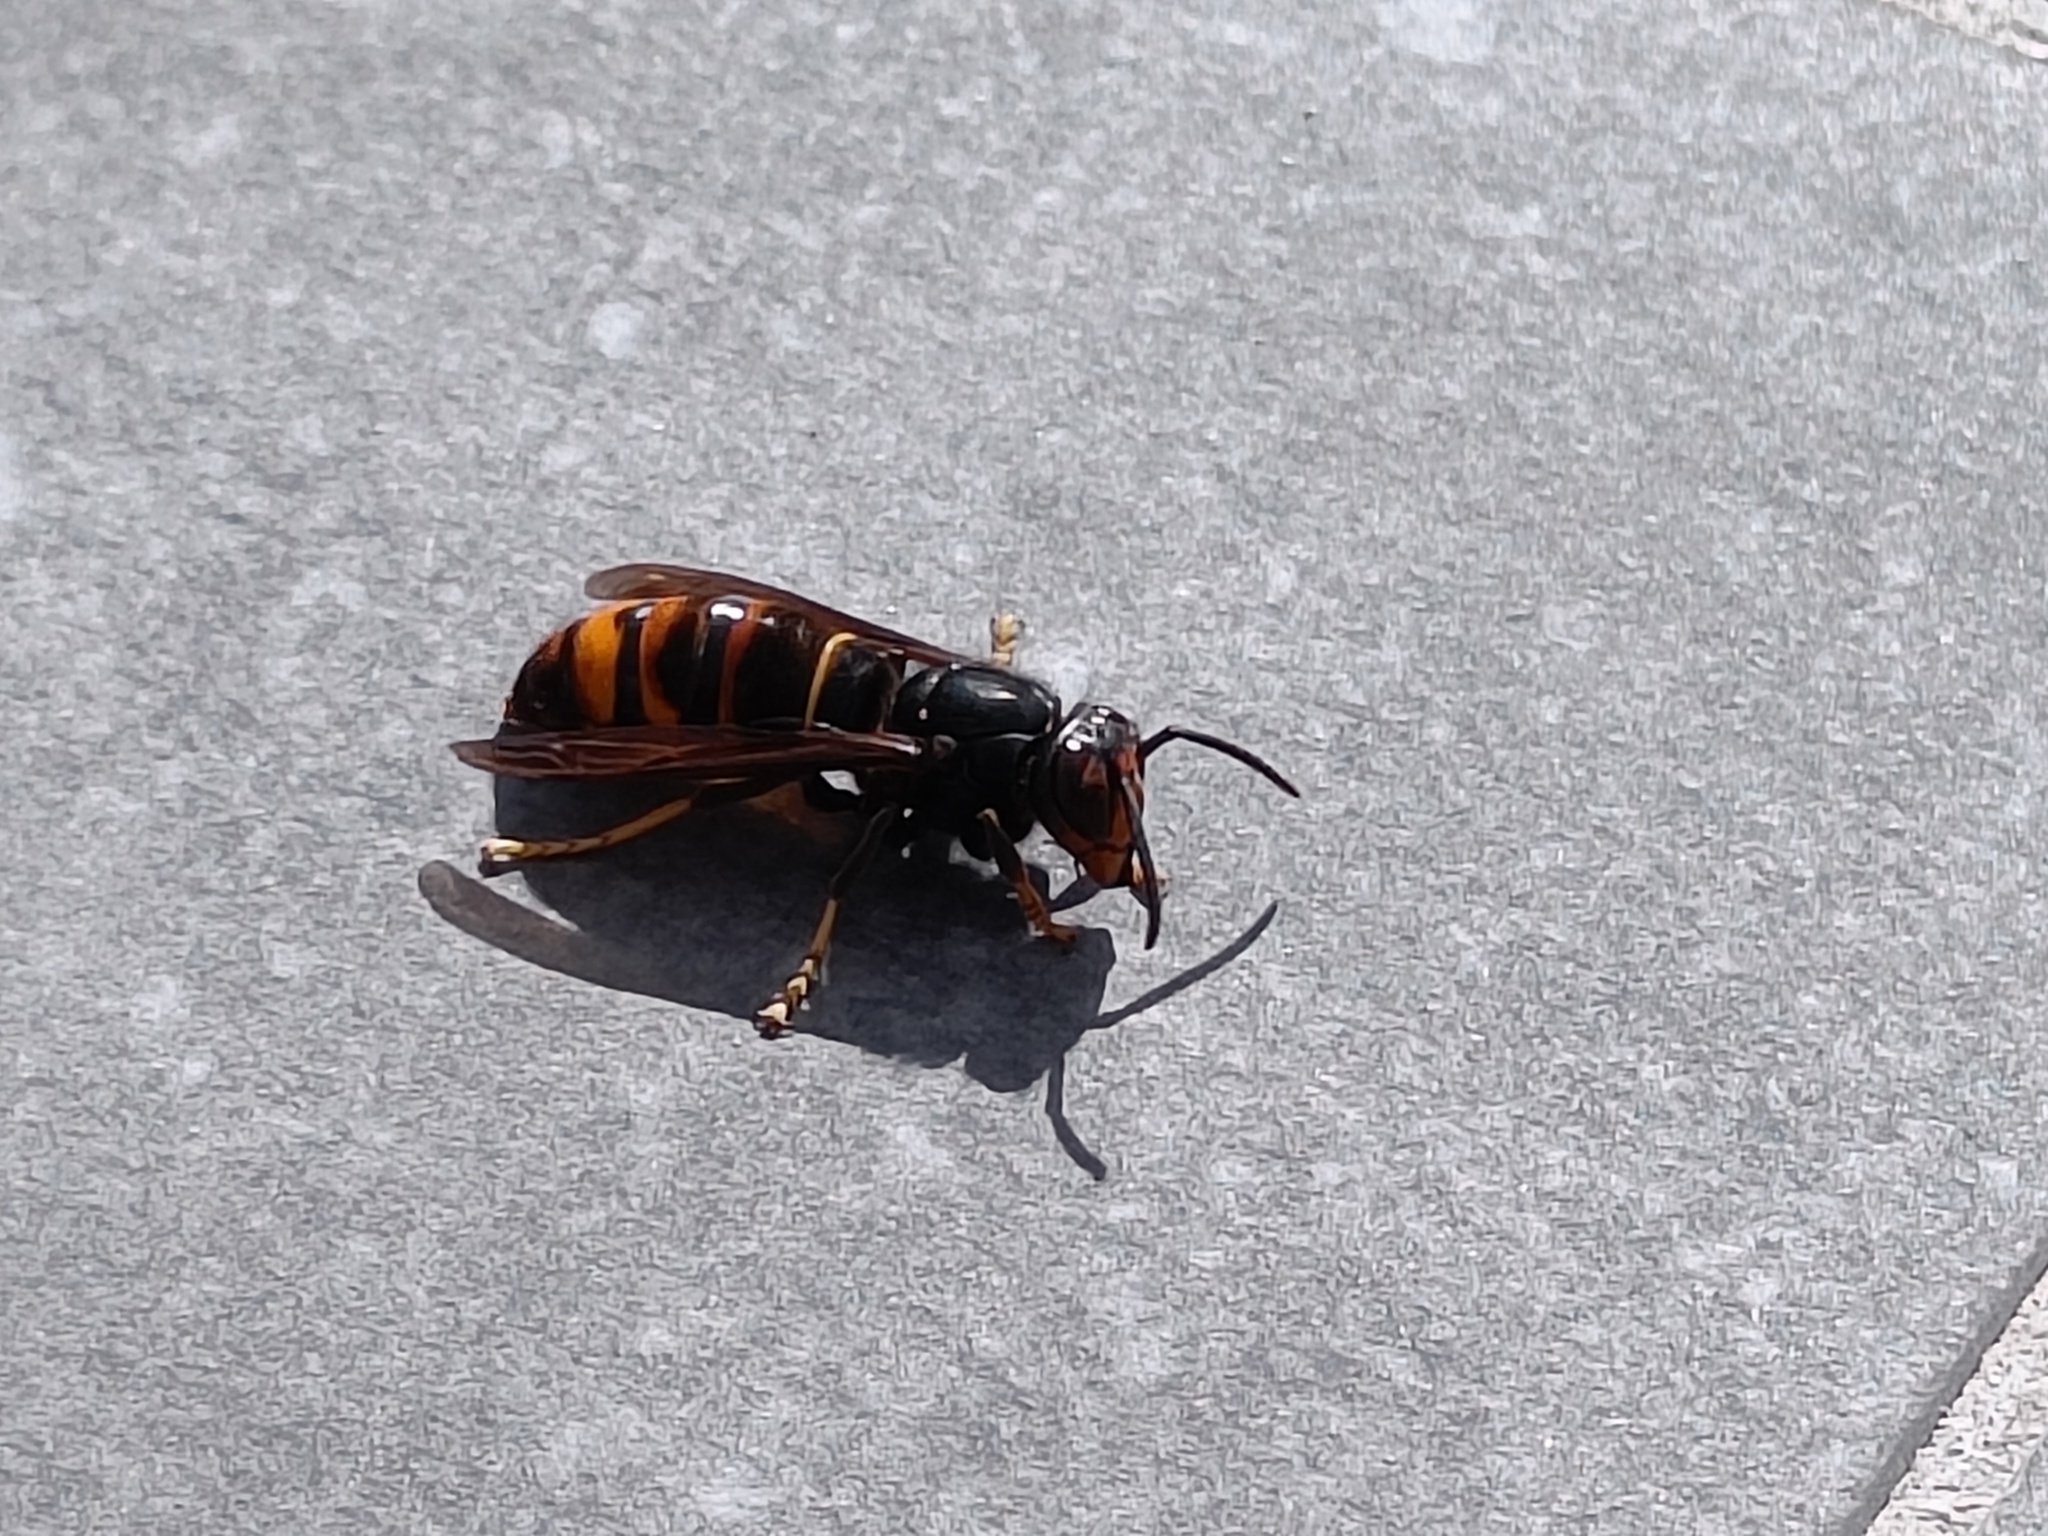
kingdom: Animalia
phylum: Arthropoda
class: Insecta
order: Hymenoptera
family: Vespidae
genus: Vespa
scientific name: Vespa velutina
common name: Asian hornet
